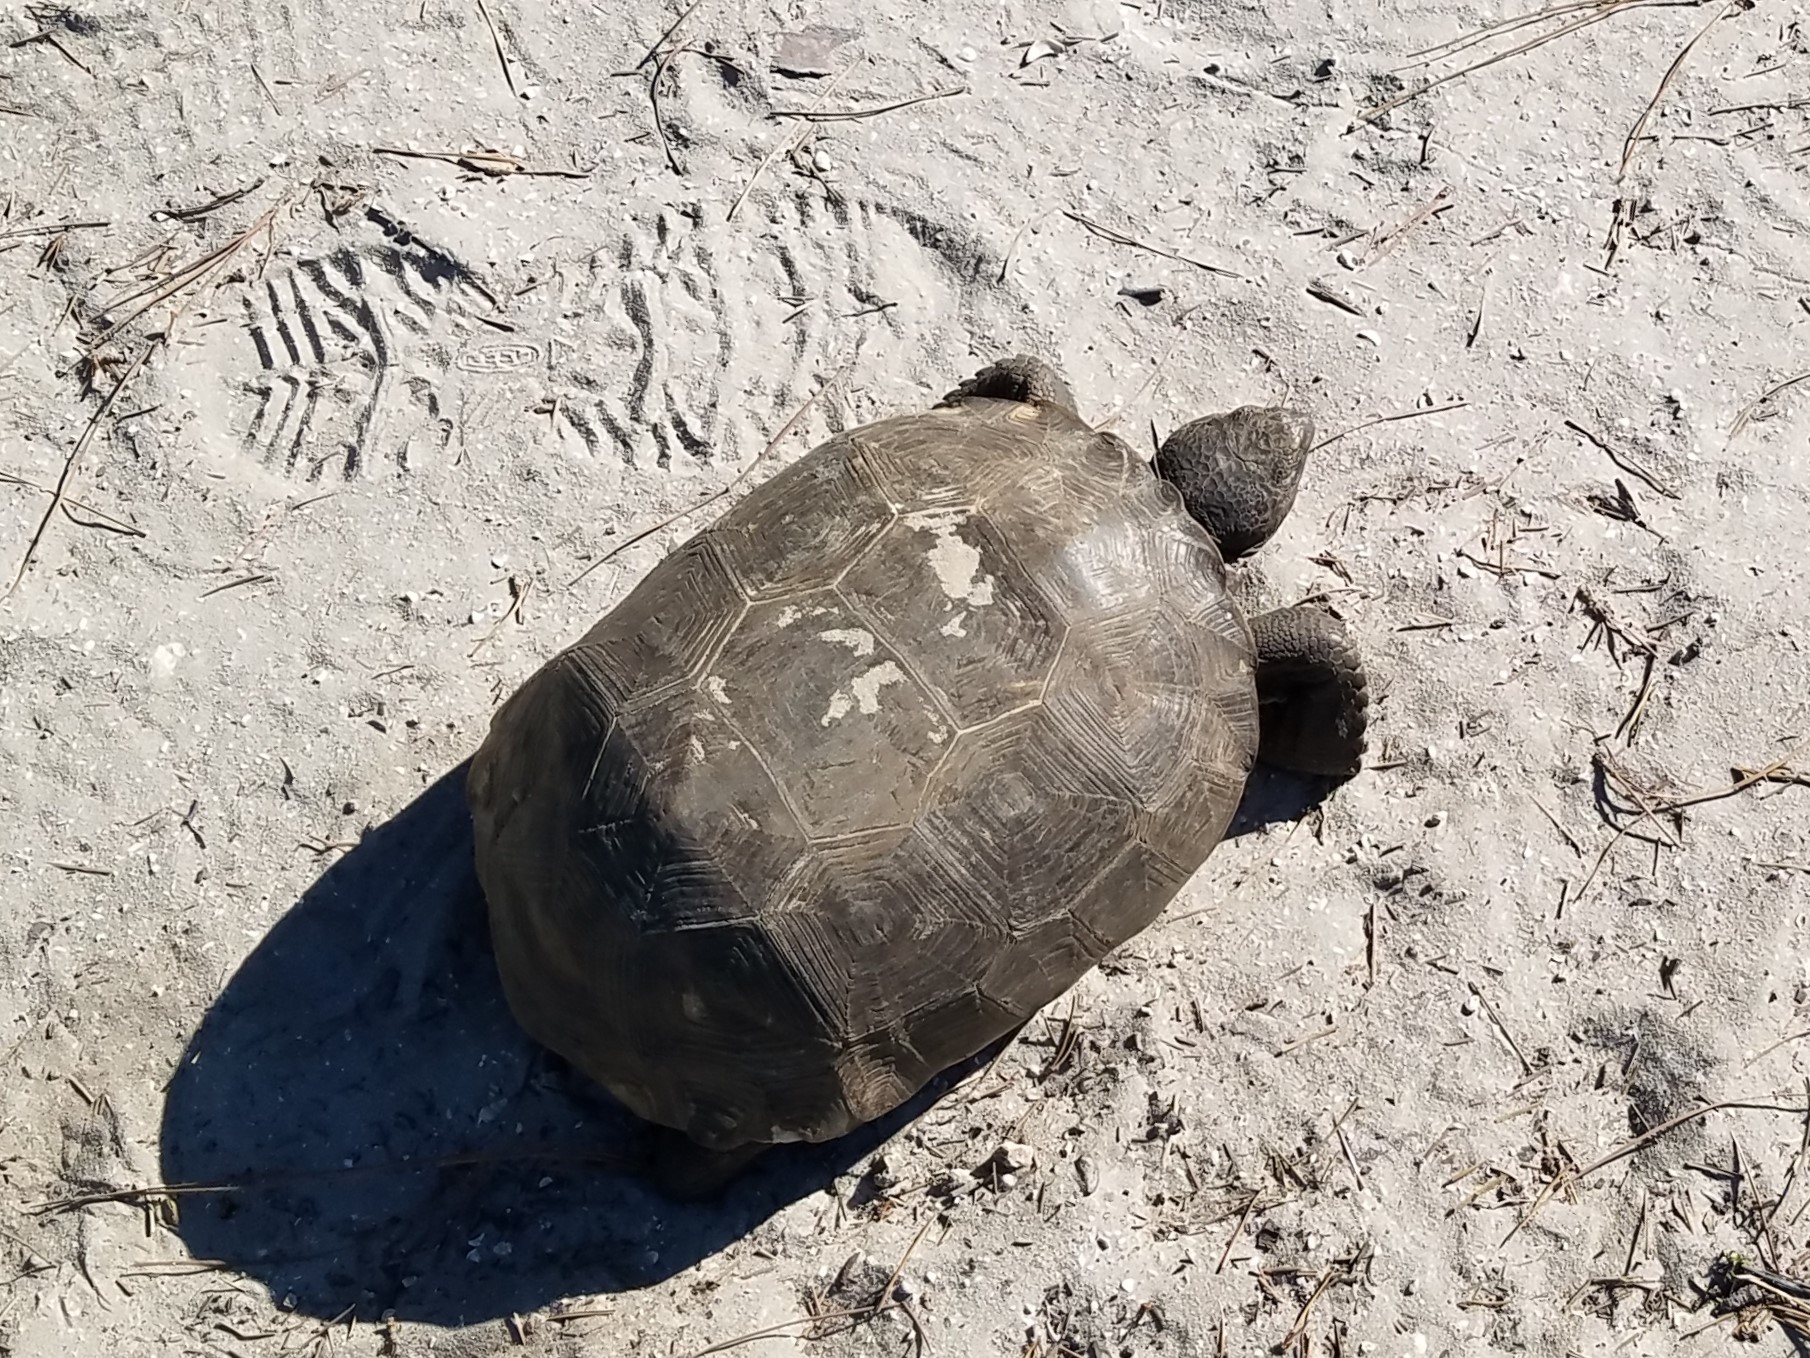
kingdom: Animalia
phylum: Chordata
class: Testudines
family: Testudinidae
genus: Gopherus
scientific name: Gopherus polyphemus
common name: Florida gopher tortoise
